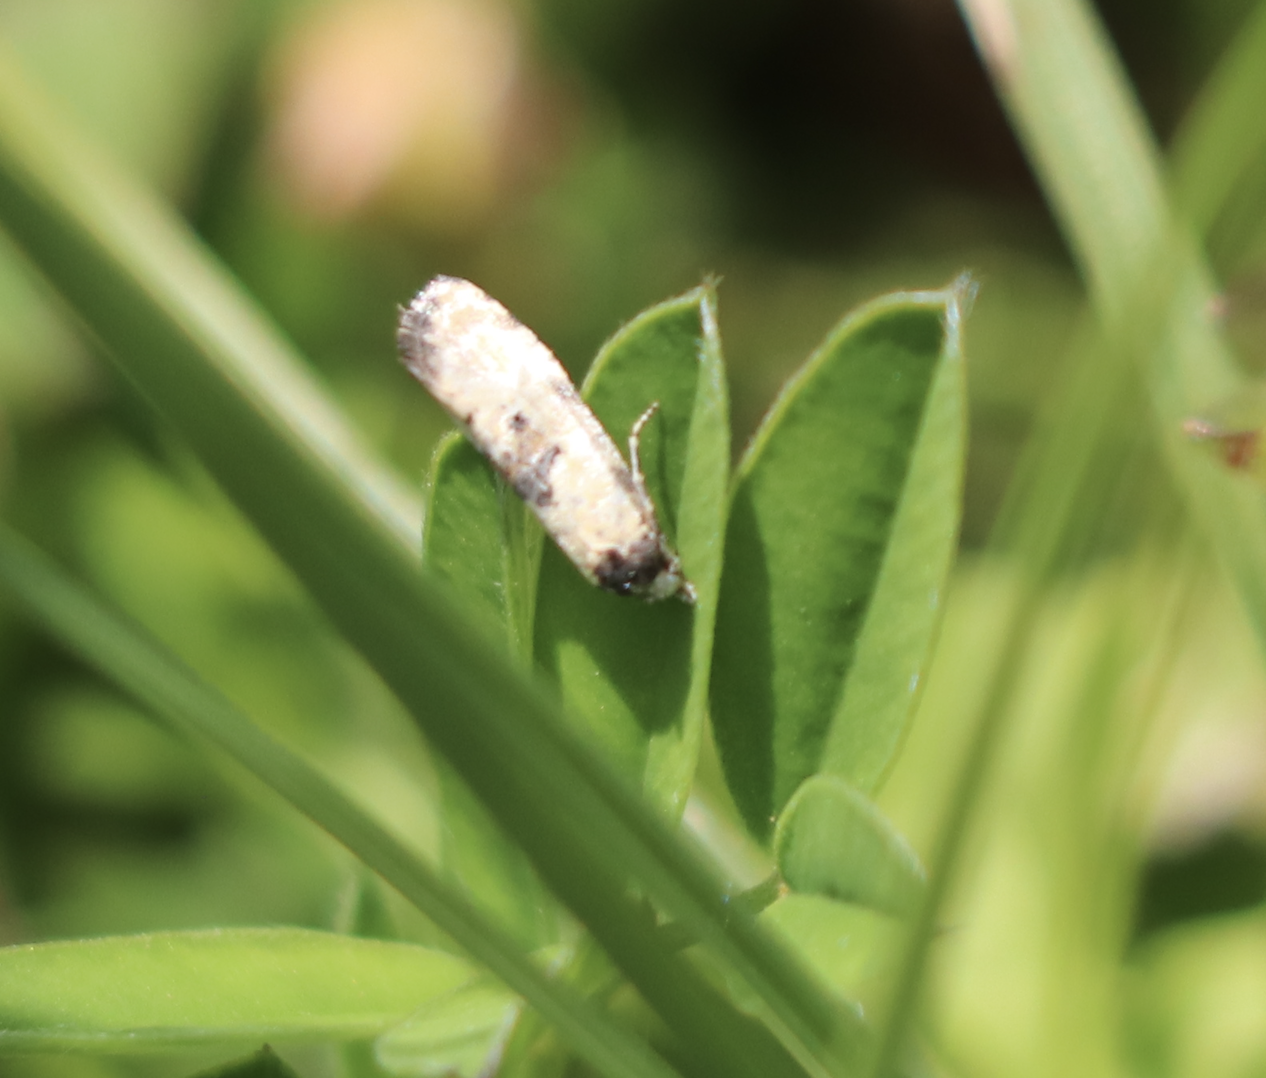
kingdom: Animalia
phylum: Arthropoda
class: Insecta
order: Lepidoptera
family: Tortricidae
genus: Cochylis
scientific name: Cochylis pallidana
